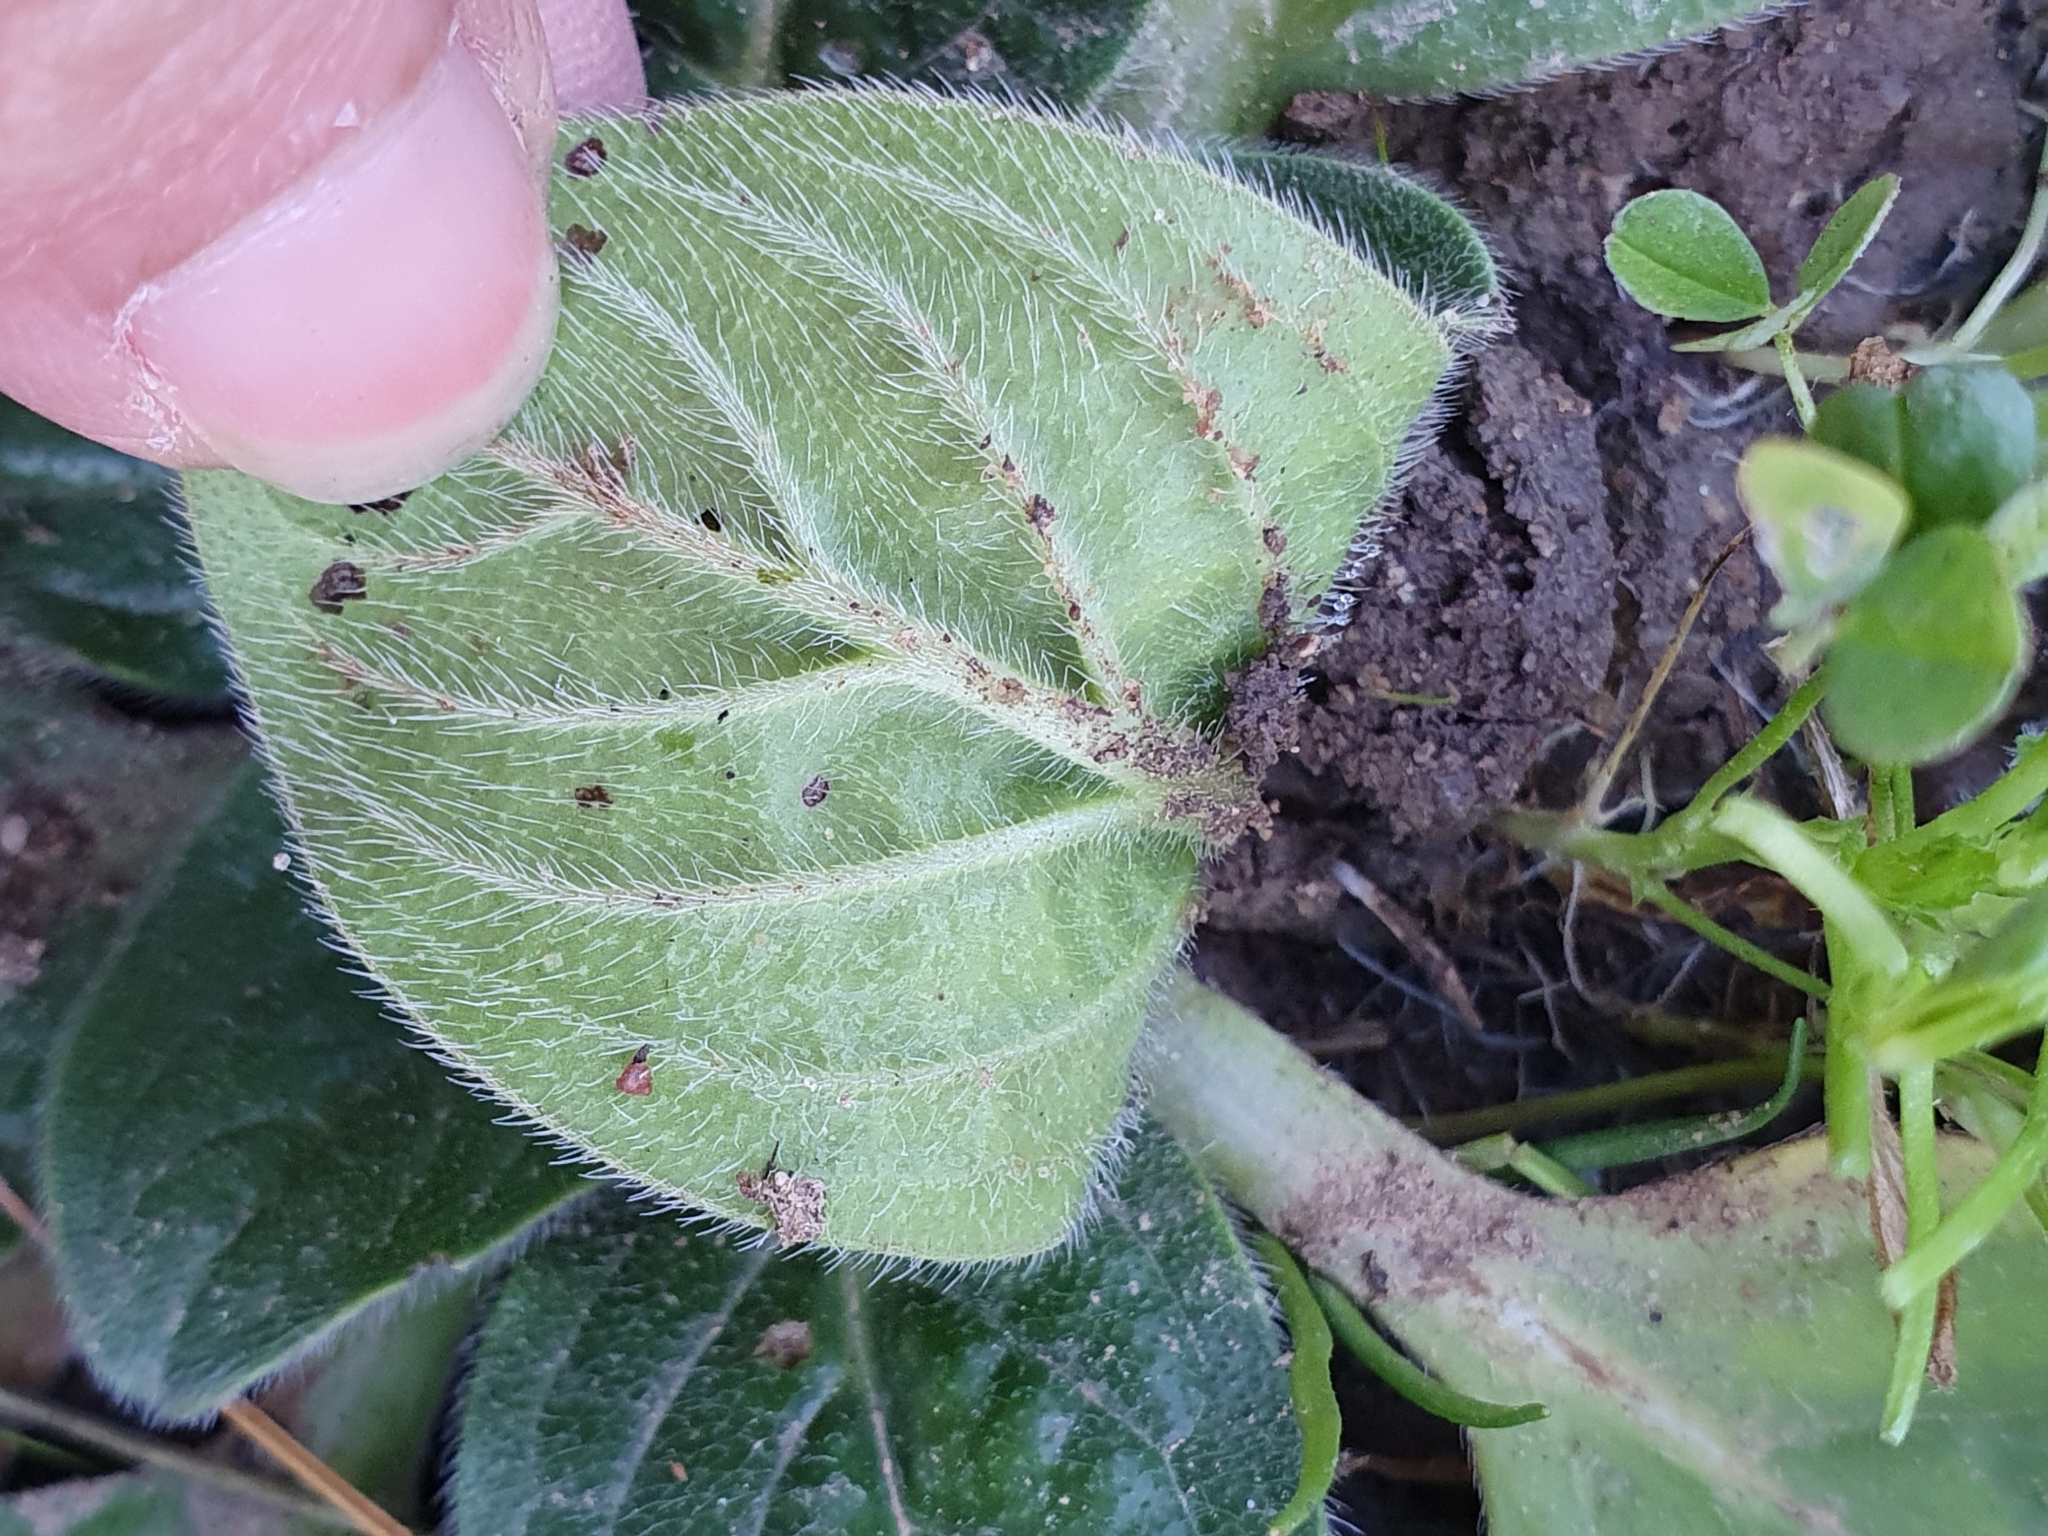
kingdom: Plantae
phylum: Tracheophyta
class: Magnoliopsida
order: Boraginales
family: Boraginaceae
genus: Echium
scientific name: Echium plantagineum
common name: Purple viper's-bugloss
